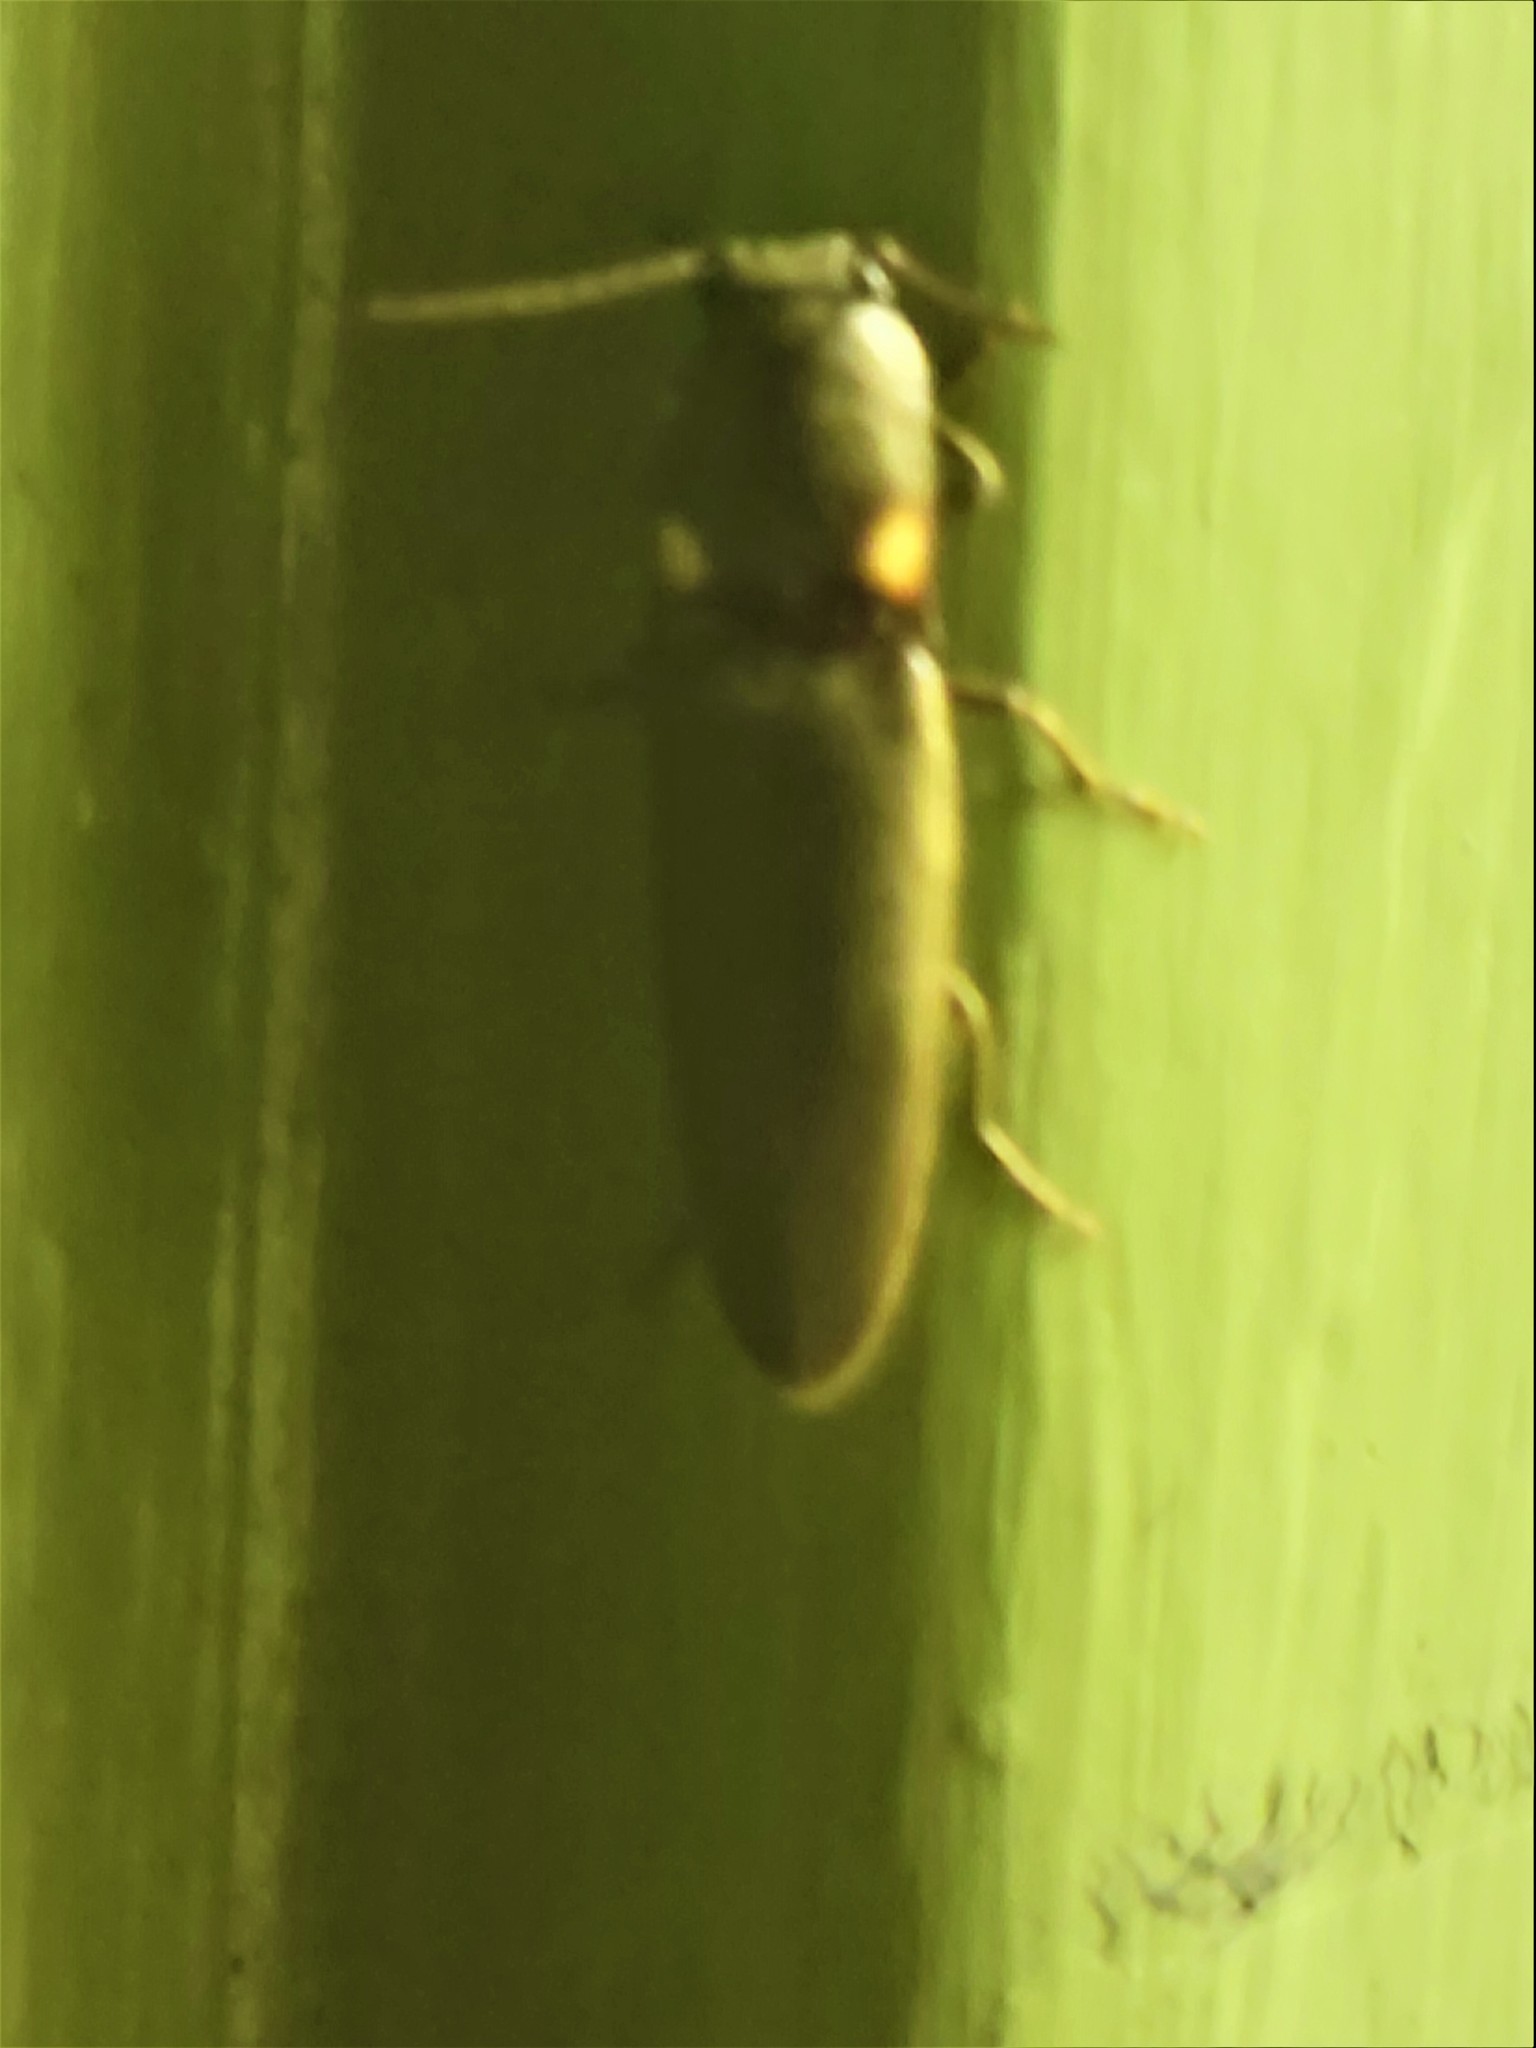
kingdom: Animalia
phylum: Arthropoda
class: Insecta
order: Coleoptera
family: Elateridae
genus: Deilelater
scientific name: Deilelater
